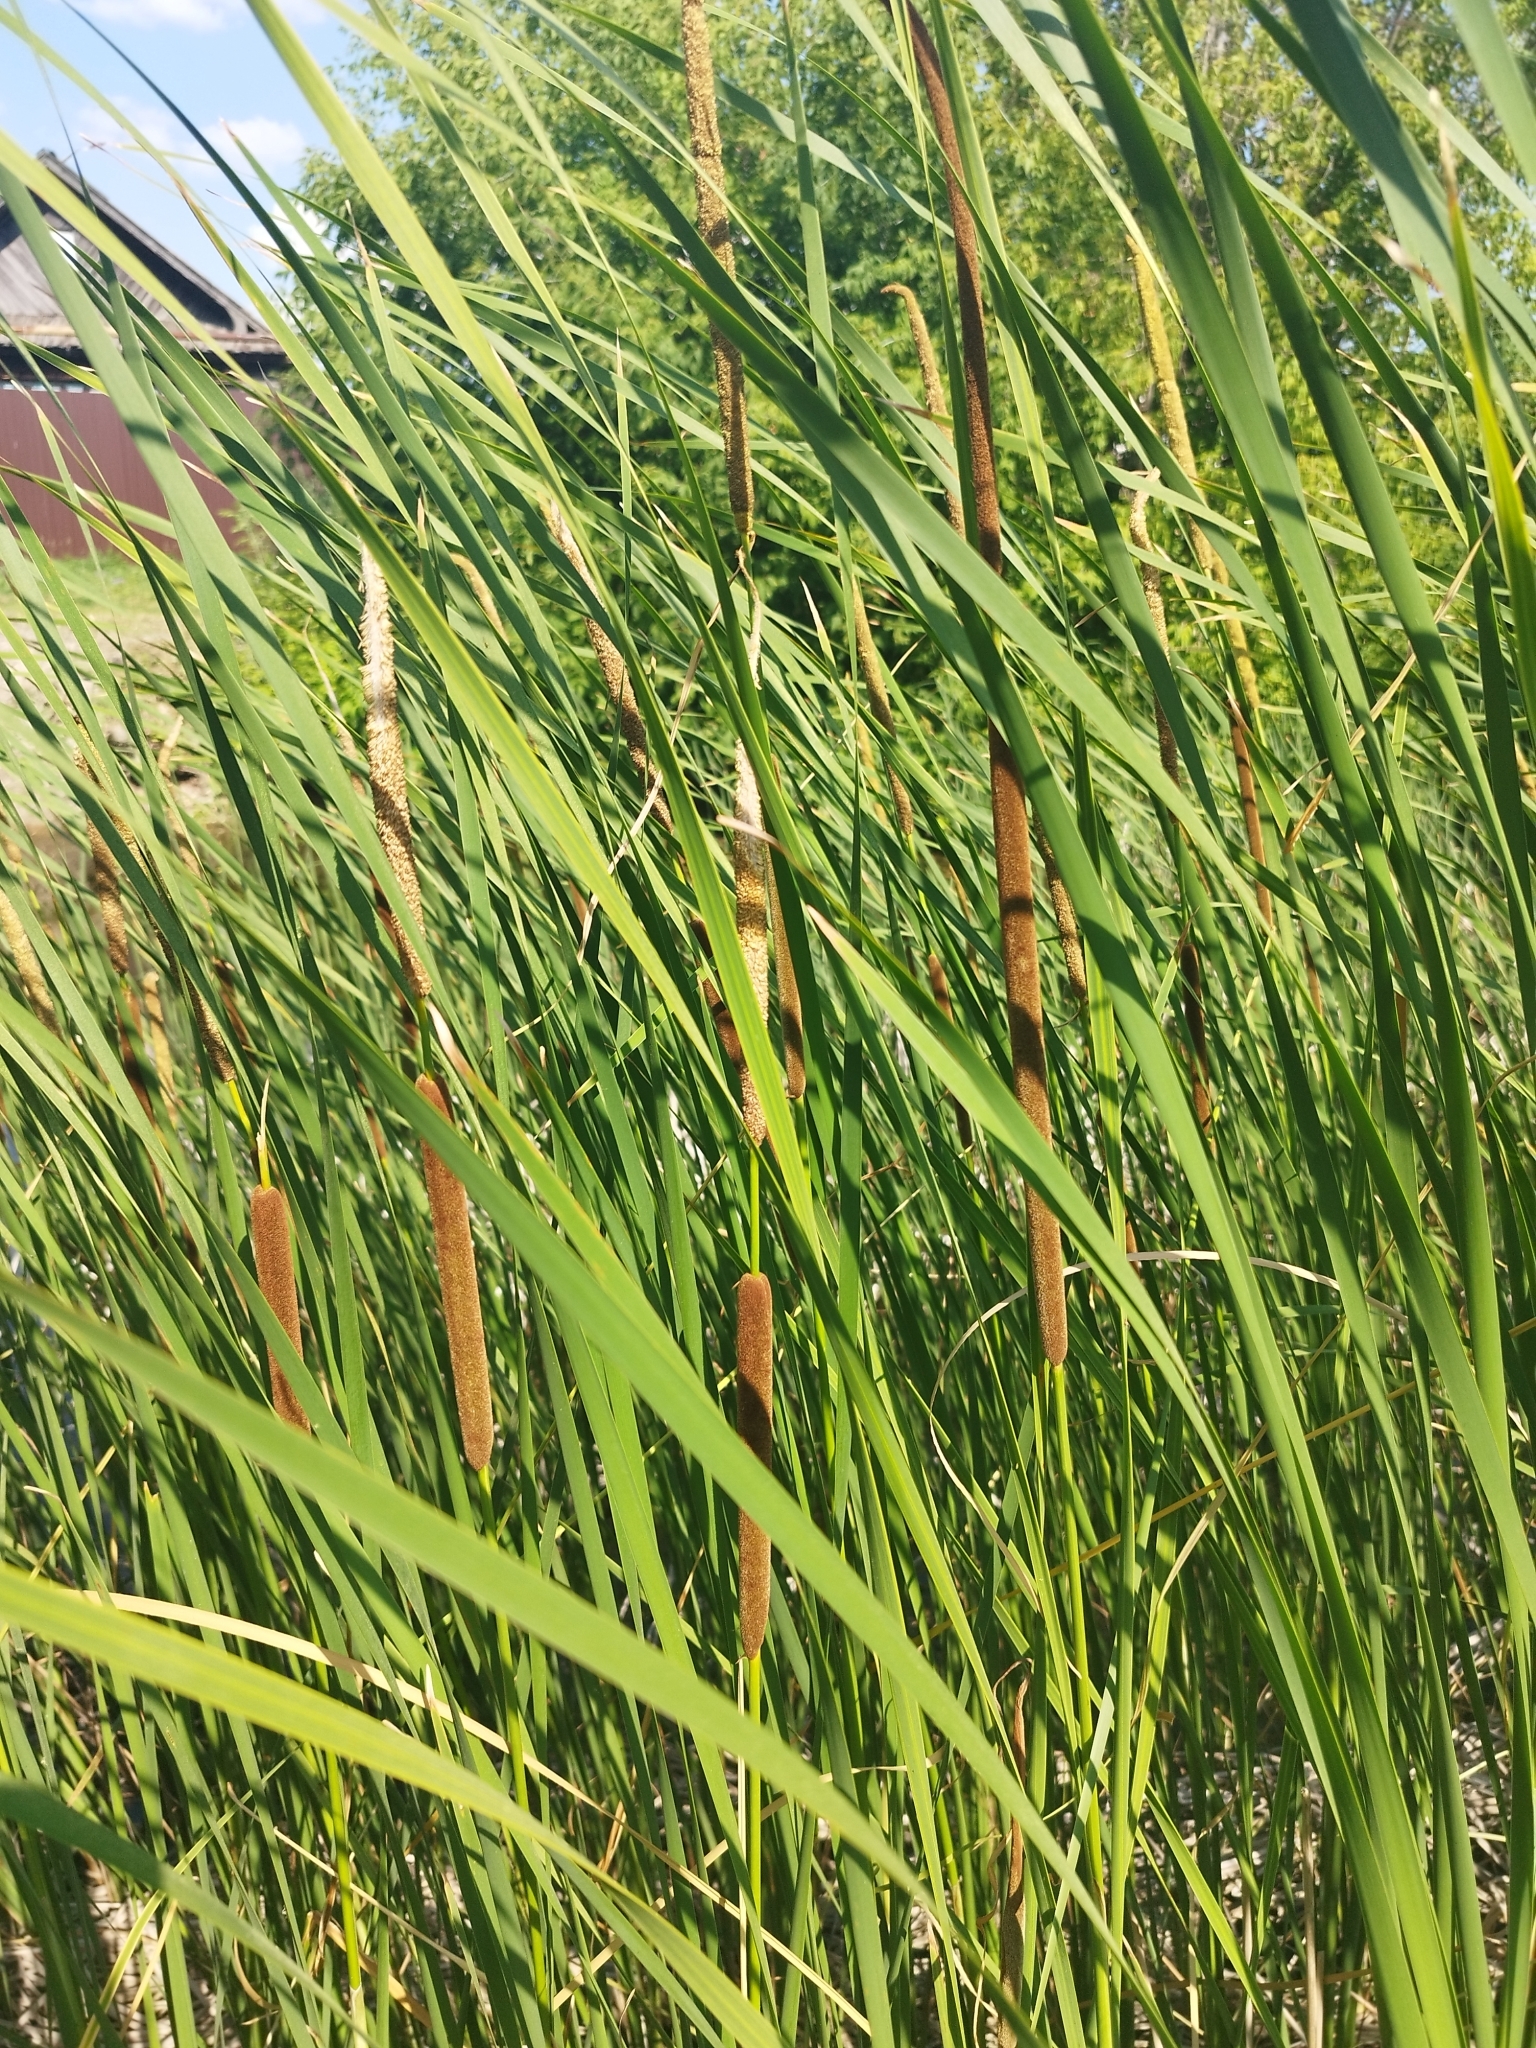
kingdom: Plantae
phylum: Tracheophyta
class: Liliopsida
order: Poales
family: Typhaceae
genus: Typha
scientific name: Typha angustifolia
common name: Lesser bulrush
